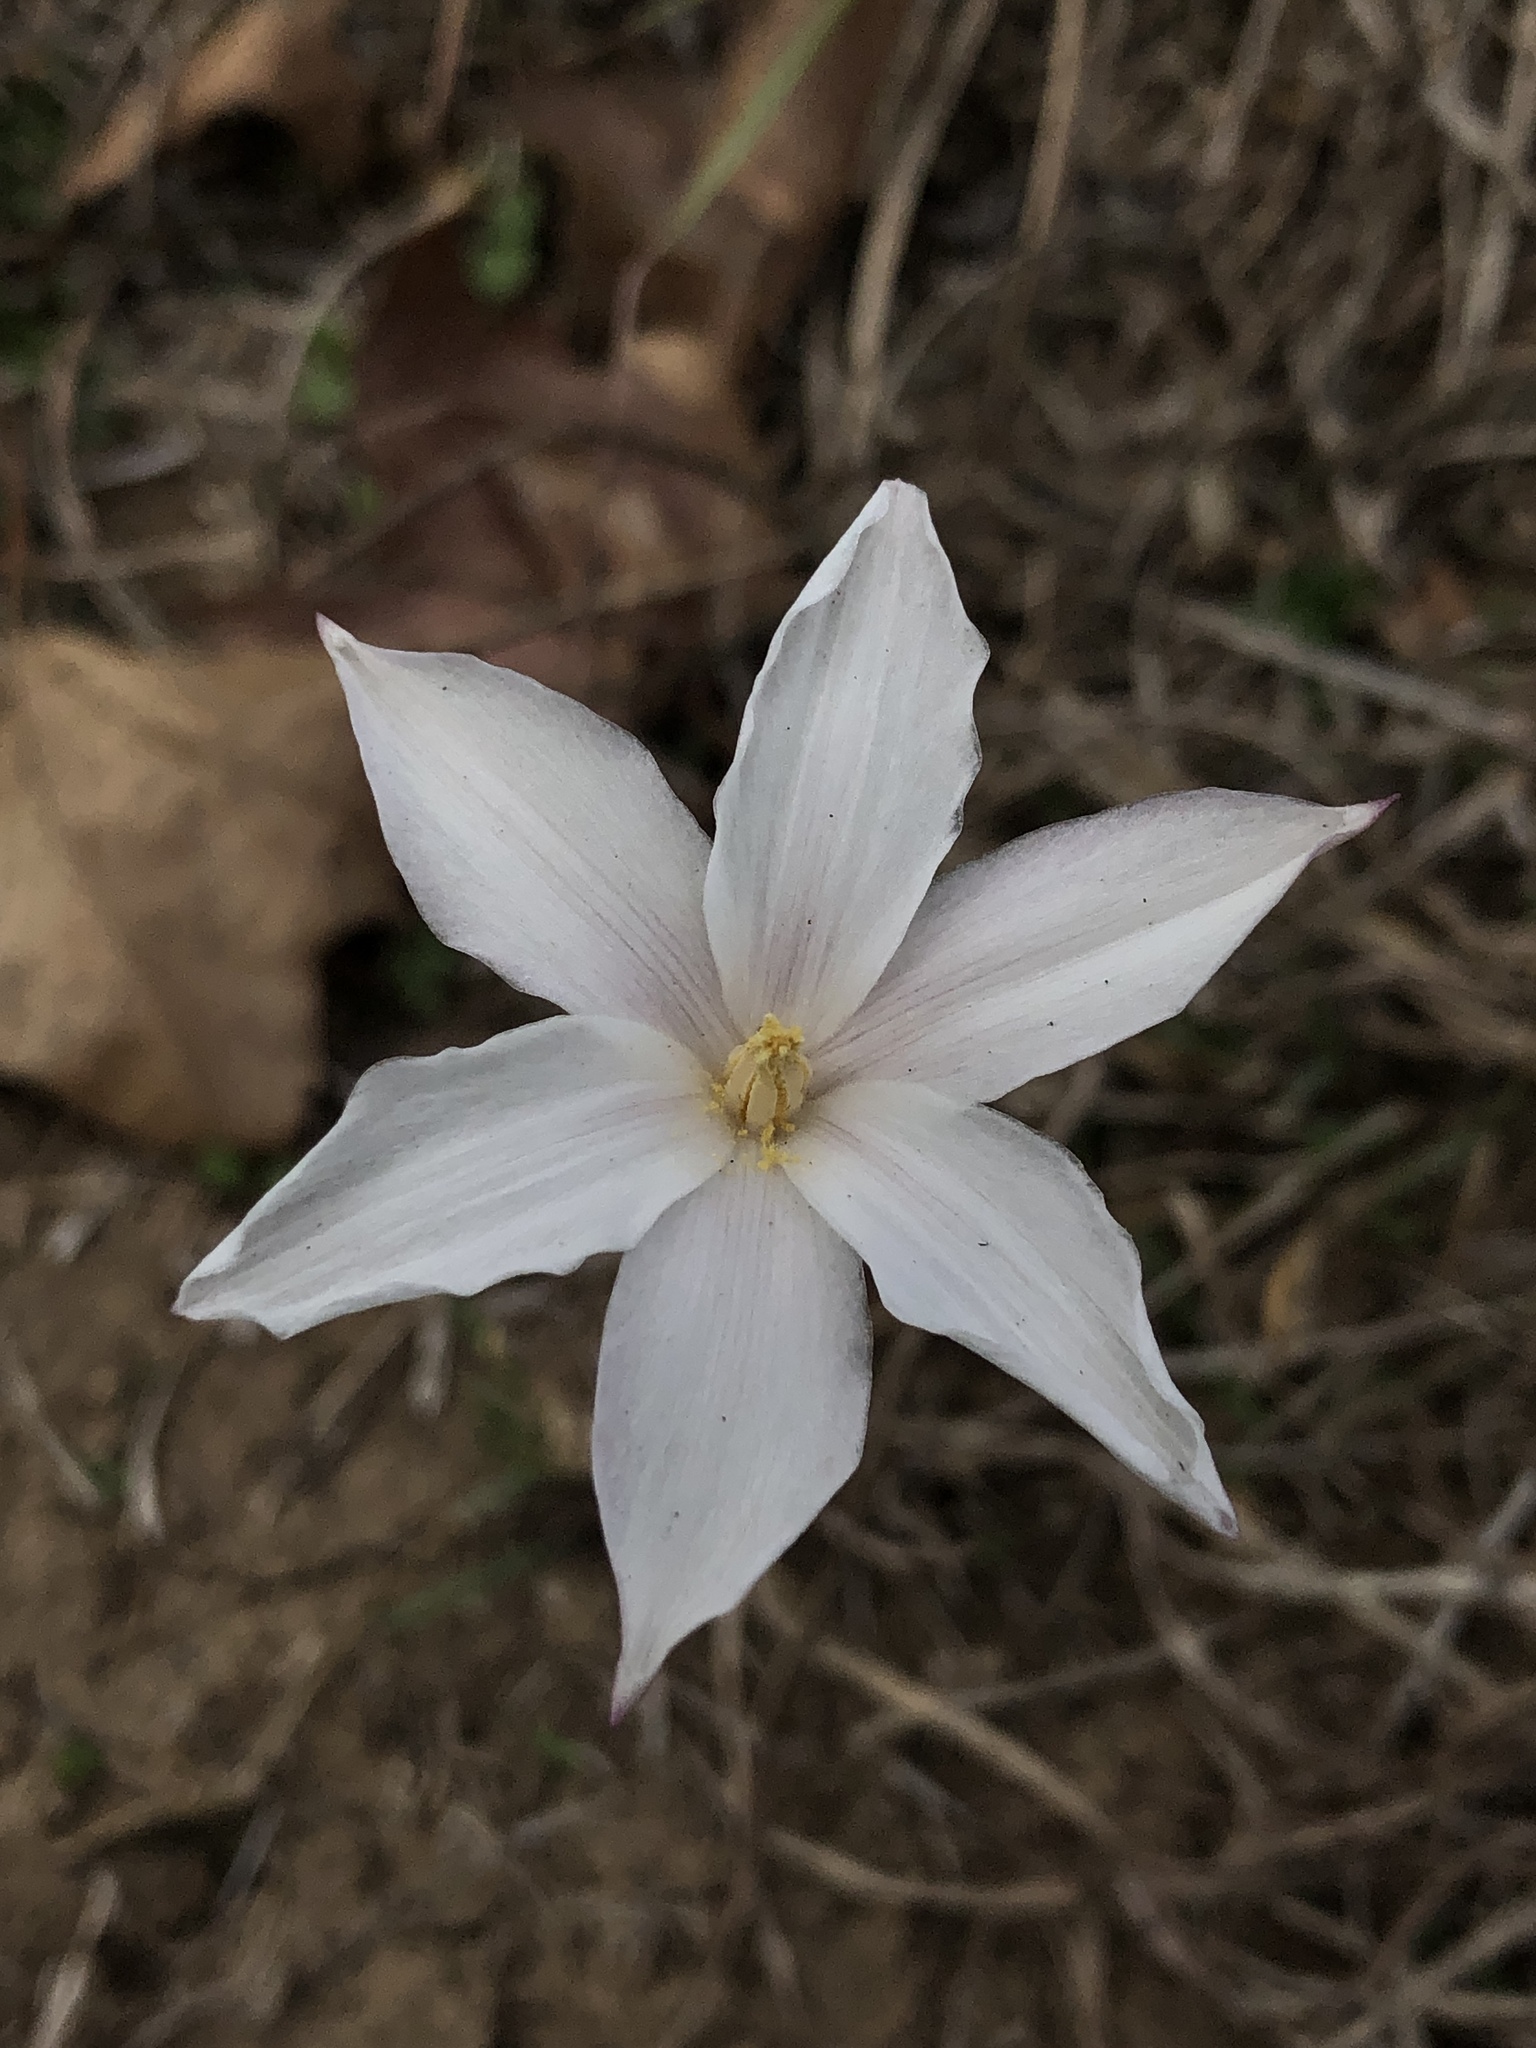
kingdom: Plantae
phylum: Tracheophyta
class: Liliopsida
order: Asparagales
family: Amaryllidaceae
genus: Zephyranthes
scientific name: Zephyranthes chlorosolen
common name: Evening rain-lily
